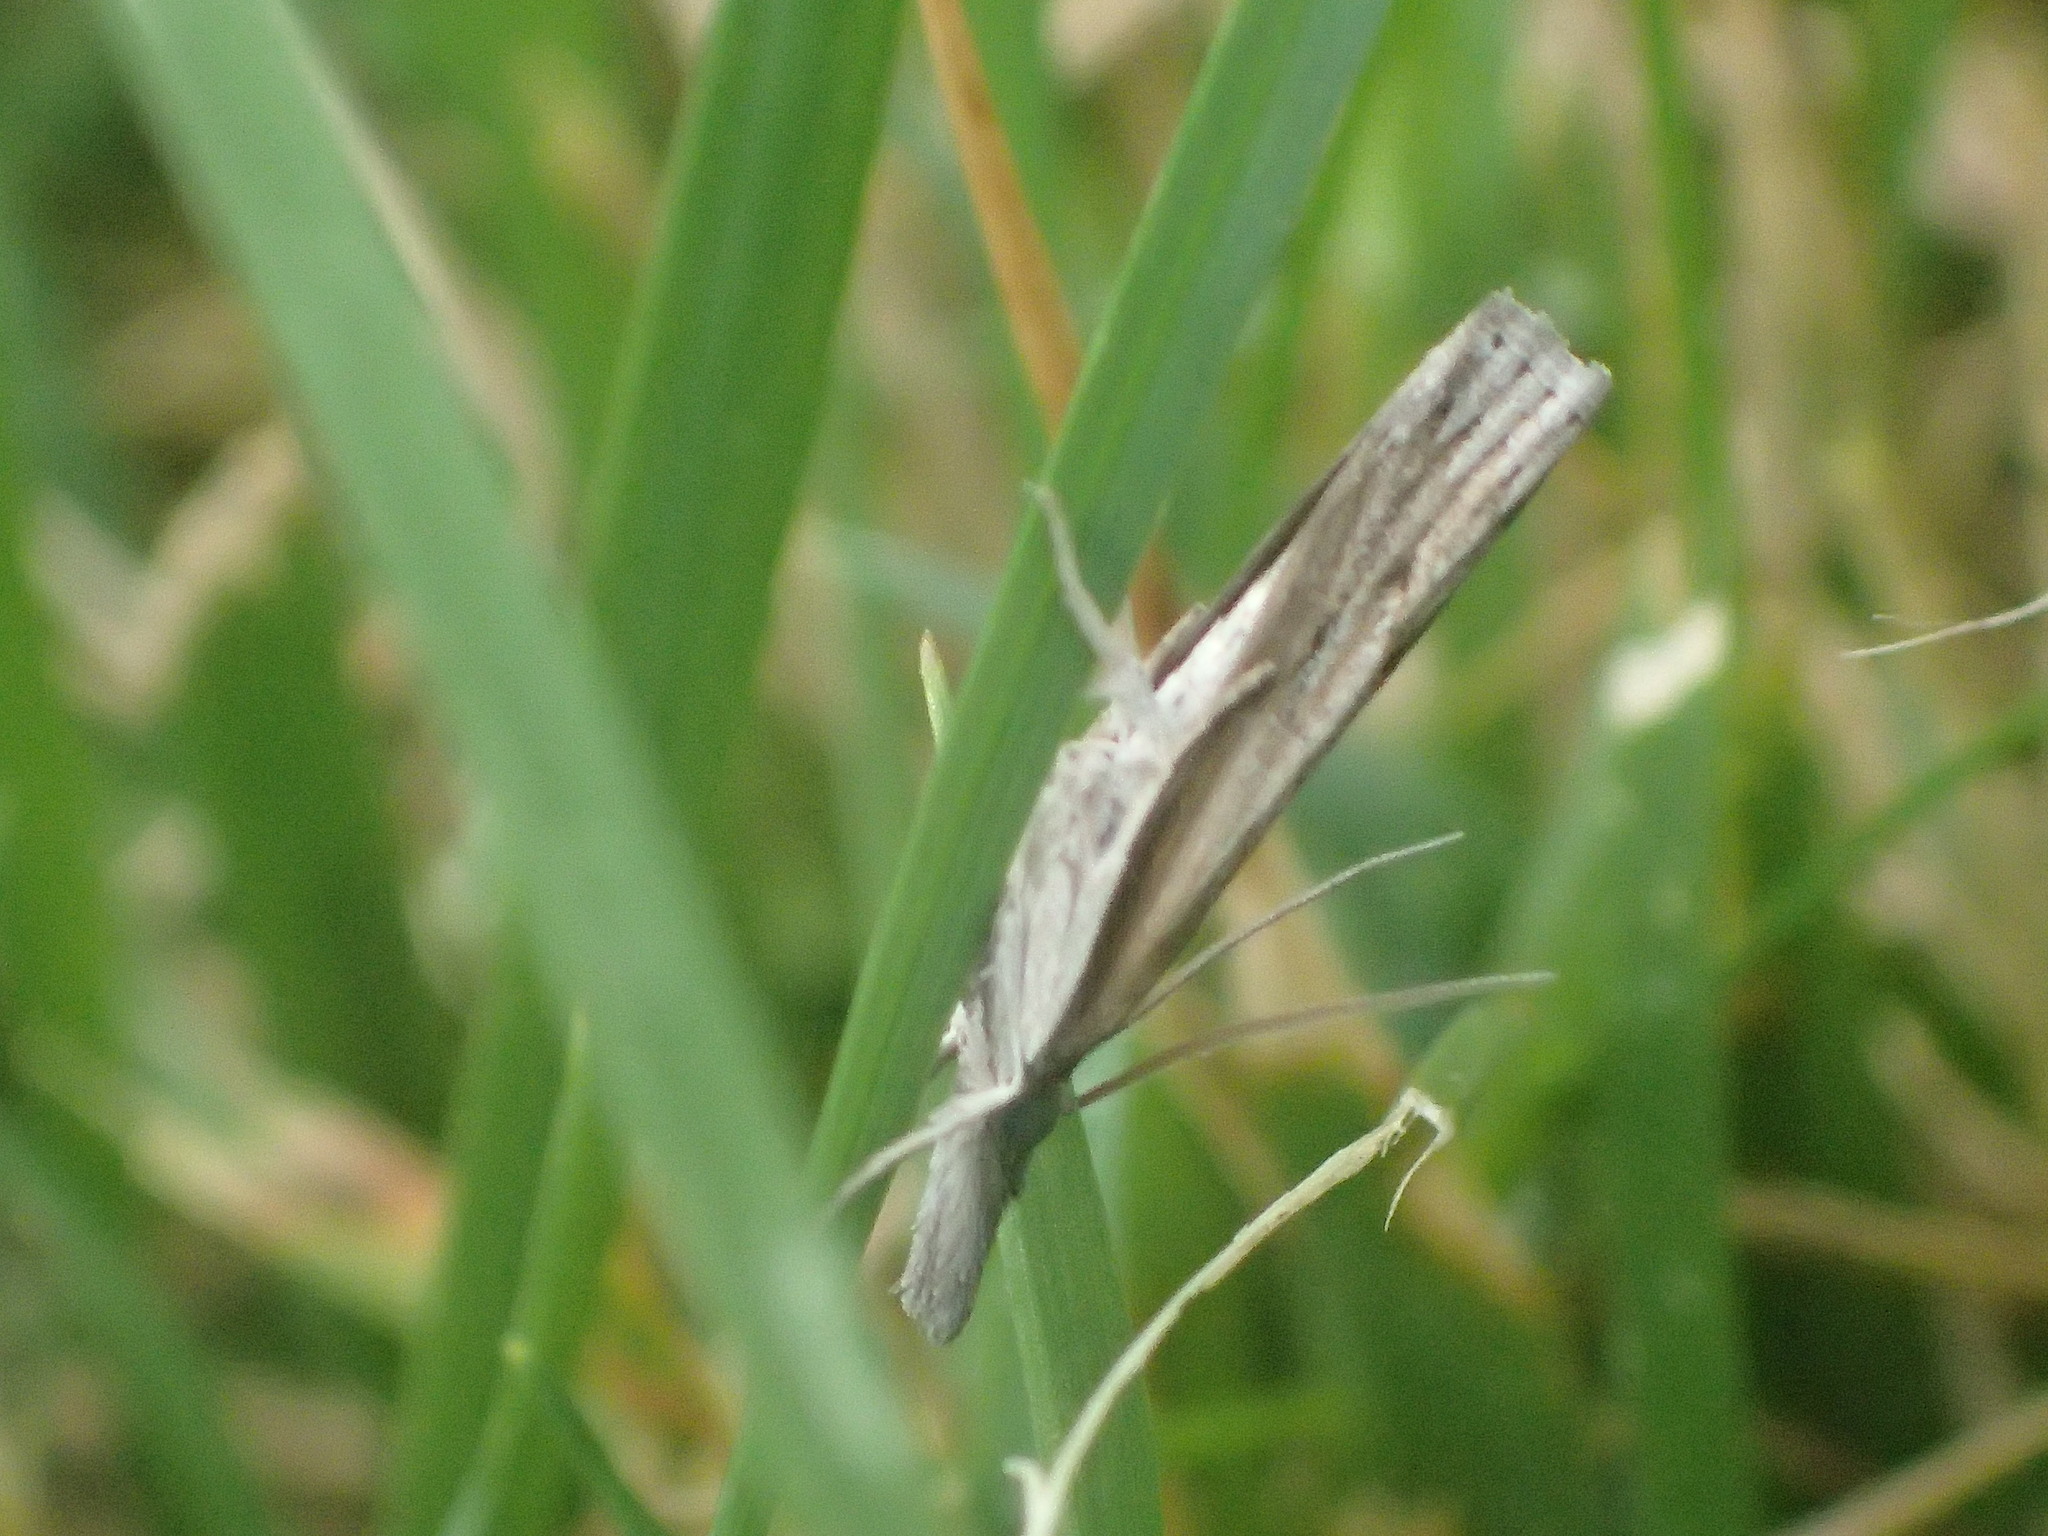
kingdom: Animalia
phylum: Arthropoda
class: Insecta
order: Lepidoptera
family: Crambidae
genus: Fissicrambus
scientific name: Fissicrambus mutabilis
